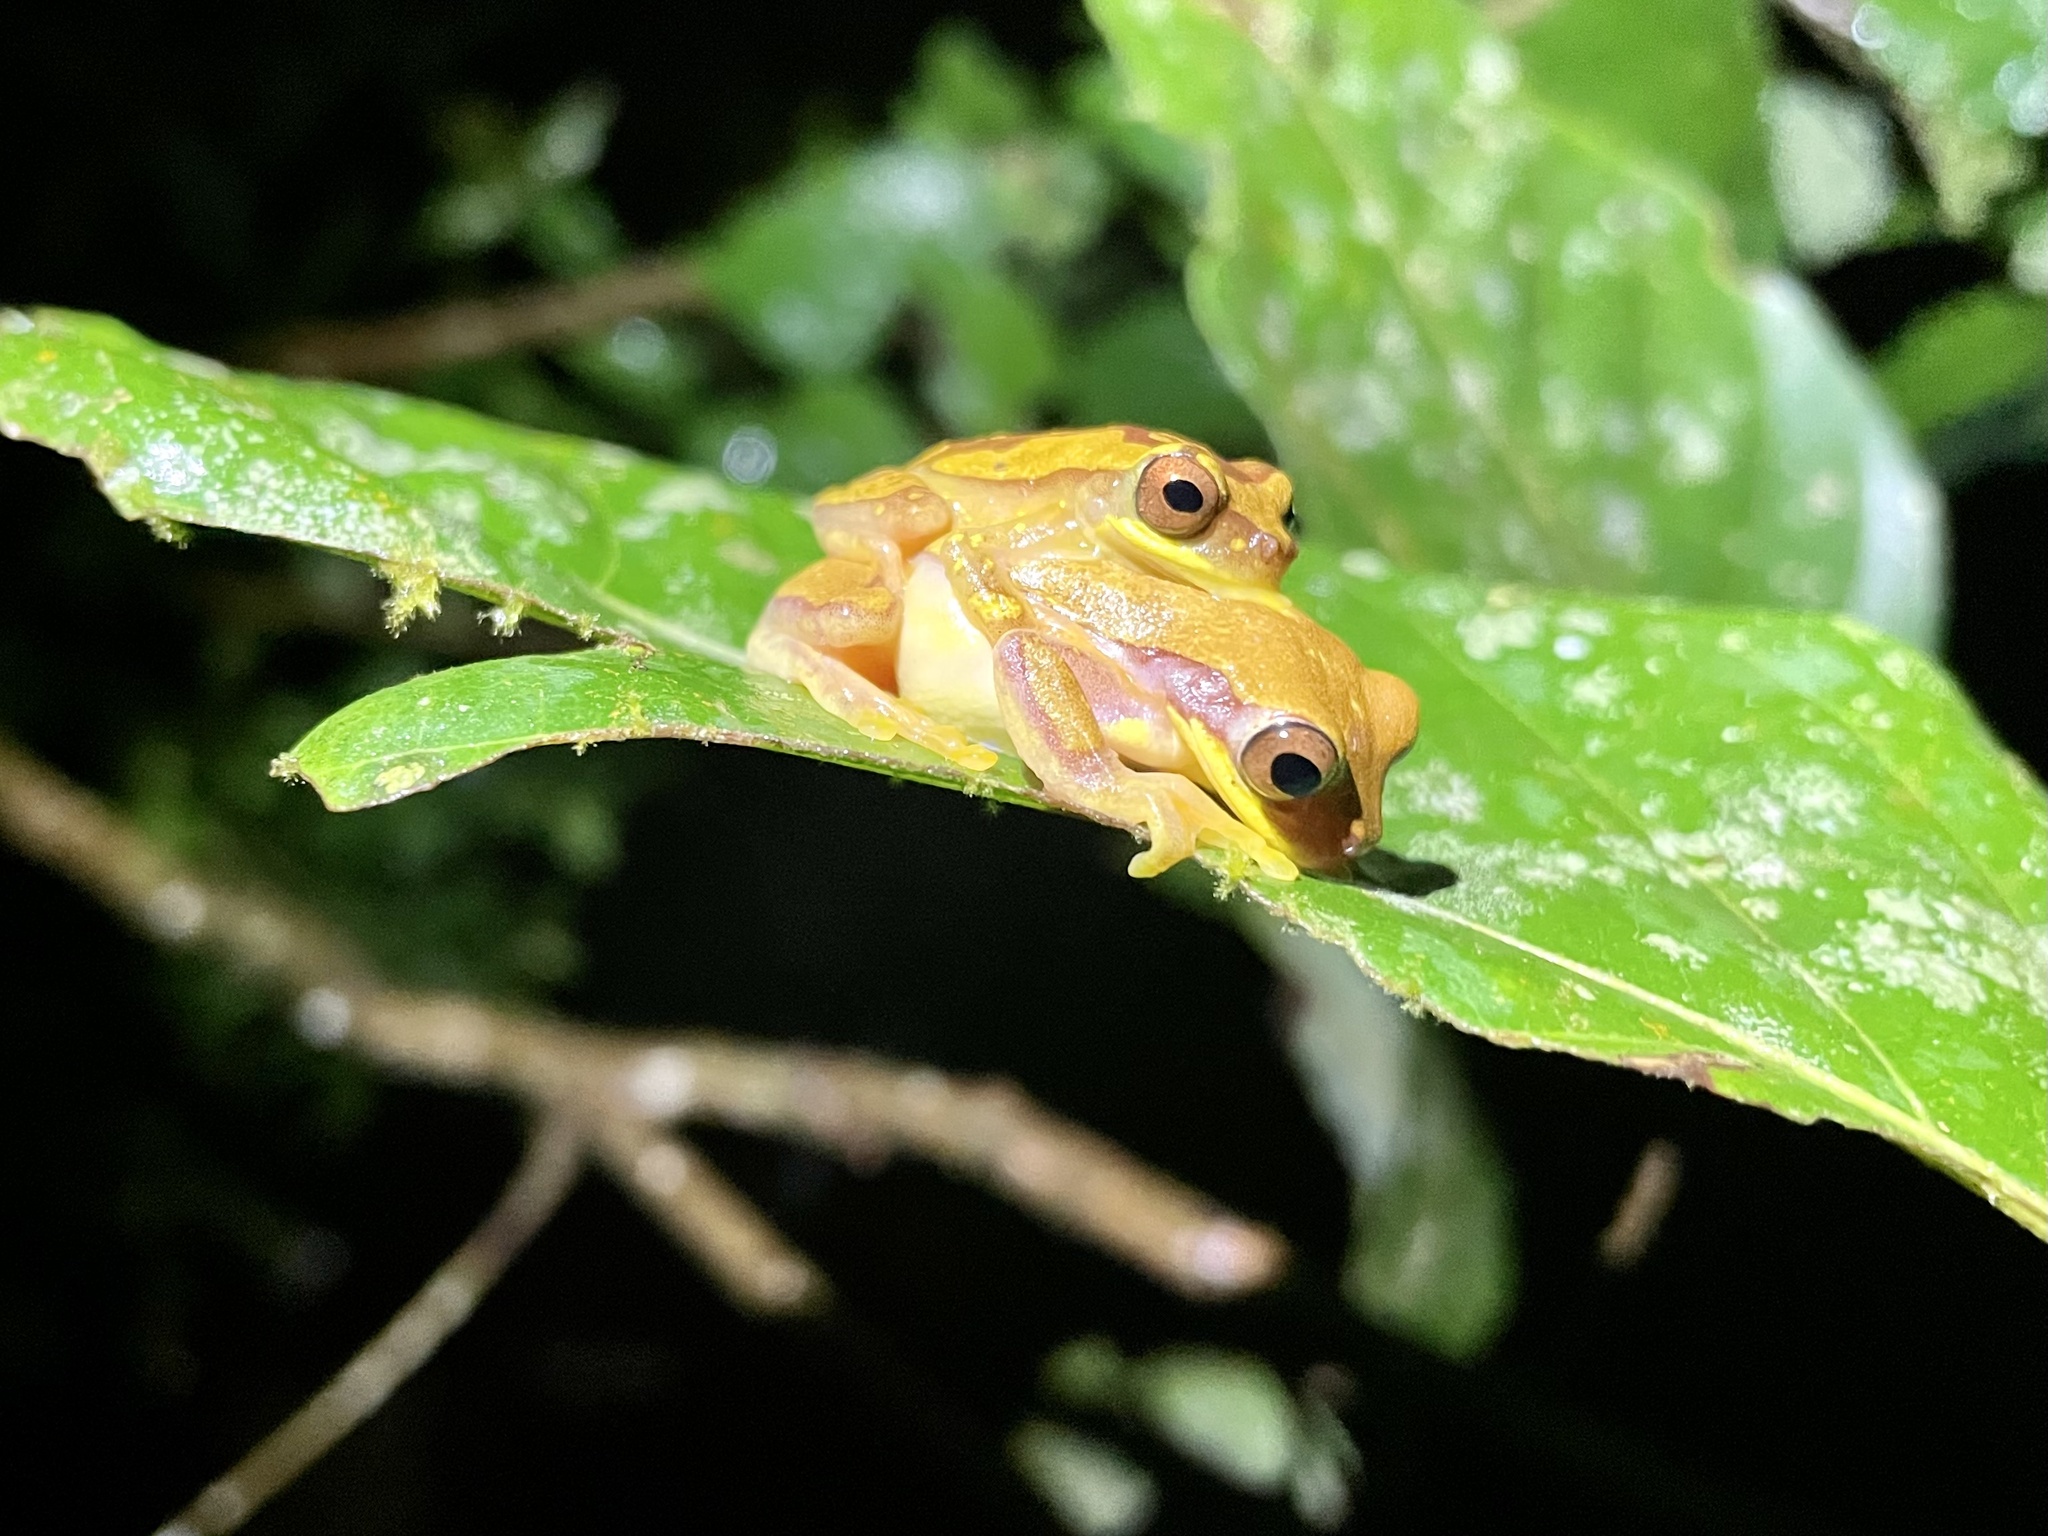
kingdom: Animalia
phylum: Chordata
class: Amphibia
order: Anura
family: Hylidae
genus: Dendropsophus
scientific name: Dendropsophus ebraccatus
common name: Hourglass treefrog
